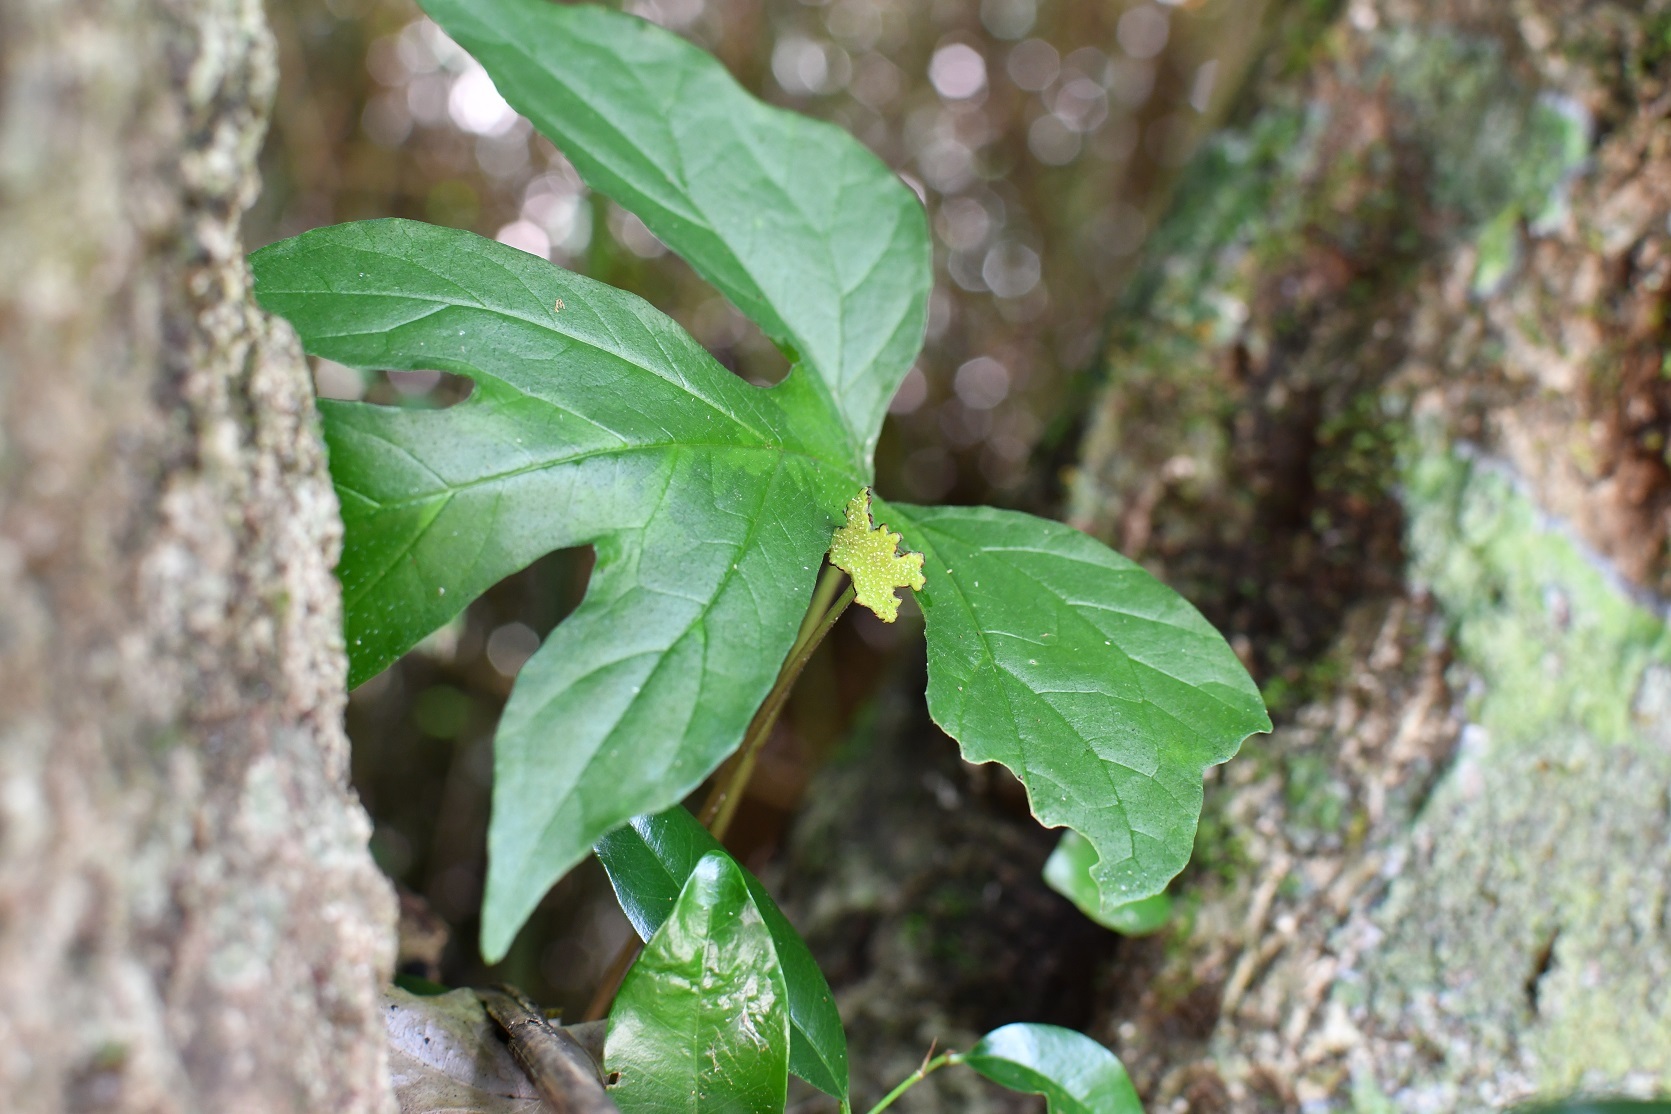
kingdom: Plantae
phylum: Tracheophyta
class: Magnoliopsida
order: Rosales
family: Moraceae
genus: Dorstenia
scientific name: Dorstenia drakena
